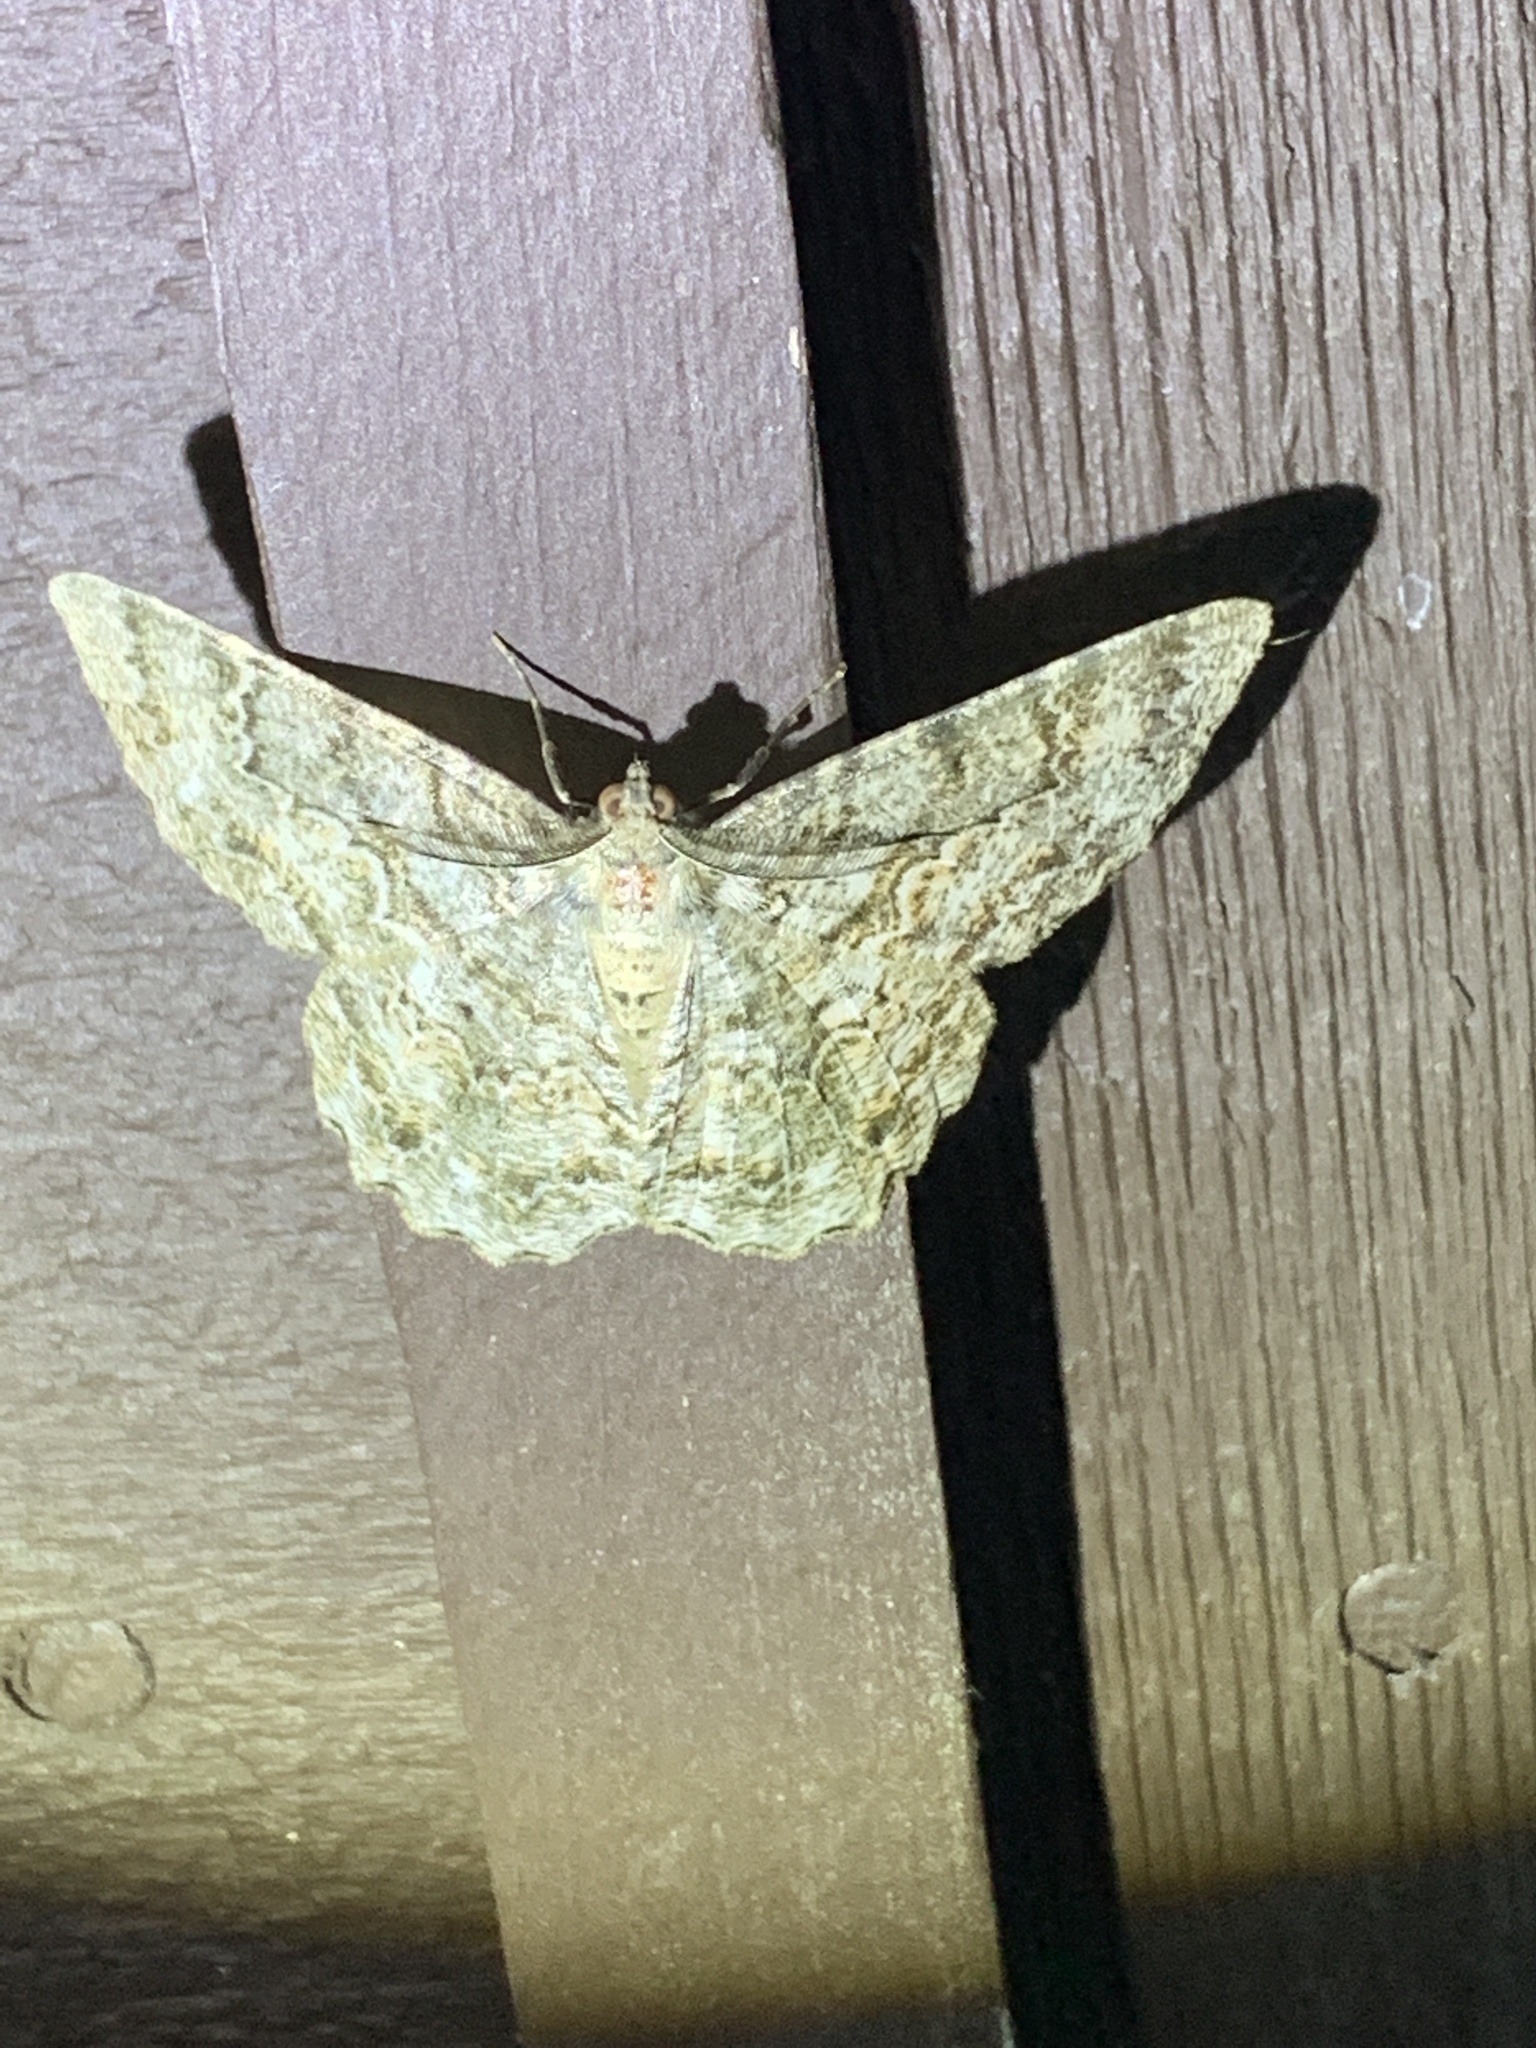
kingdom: Animalia
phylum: Arthropoda
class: Insecta
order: Lepidoptera
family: Geometridae
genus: Epimecis
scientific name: Epimecis hortaria
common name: Tulip-tree beauty
